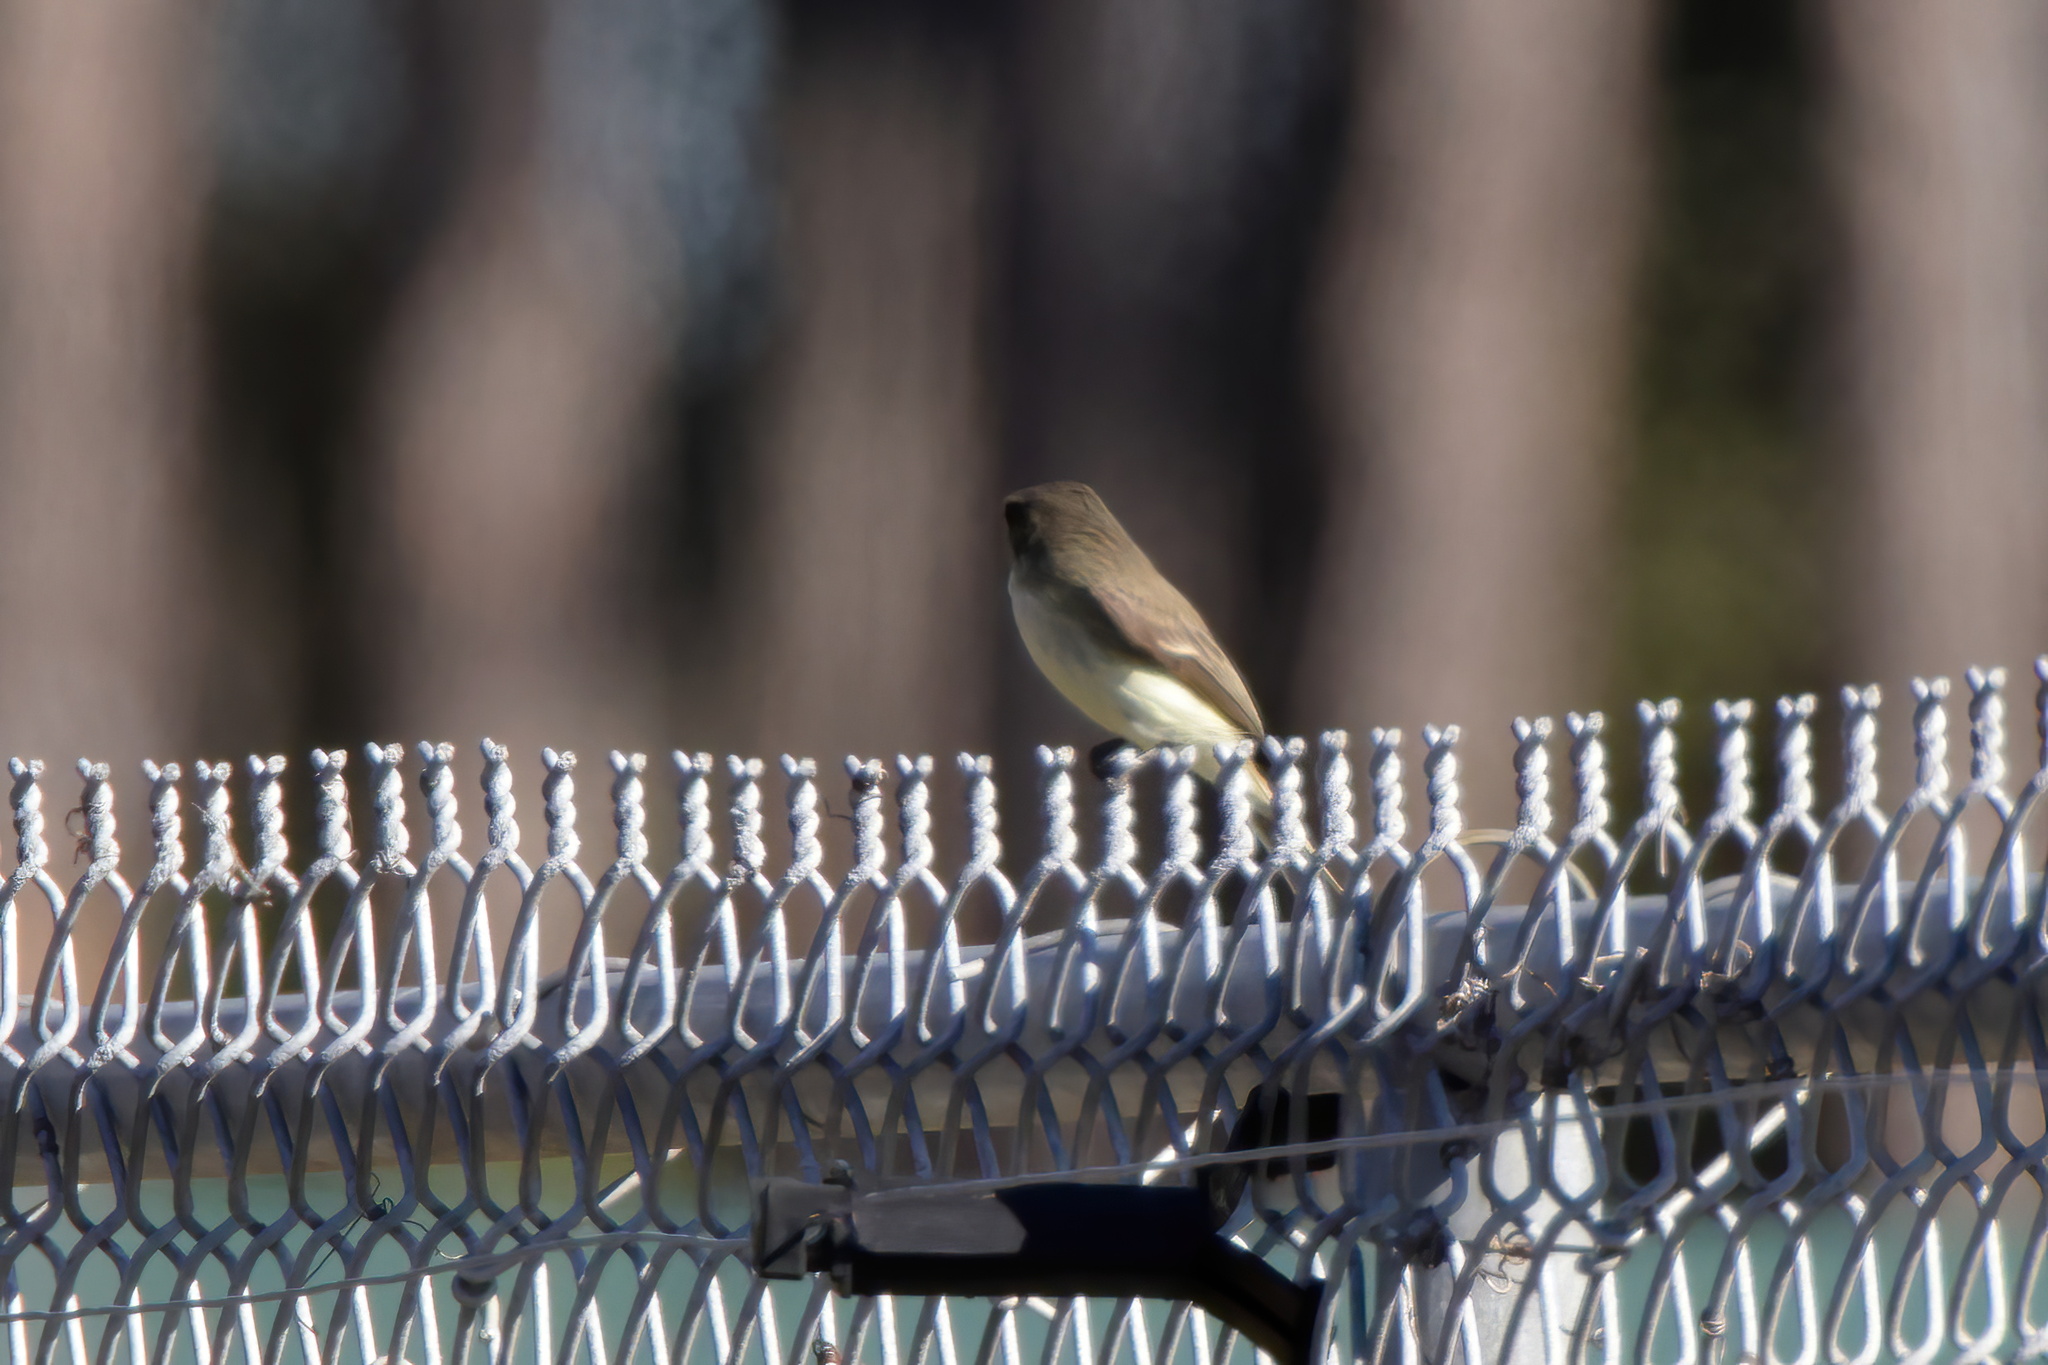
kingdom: Animalia
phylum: Chordata
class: Aves
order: Passeriformes
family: Tyrannidae
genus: Sayornis
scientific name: Sayornis phoebe
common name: Eastern phoebe
